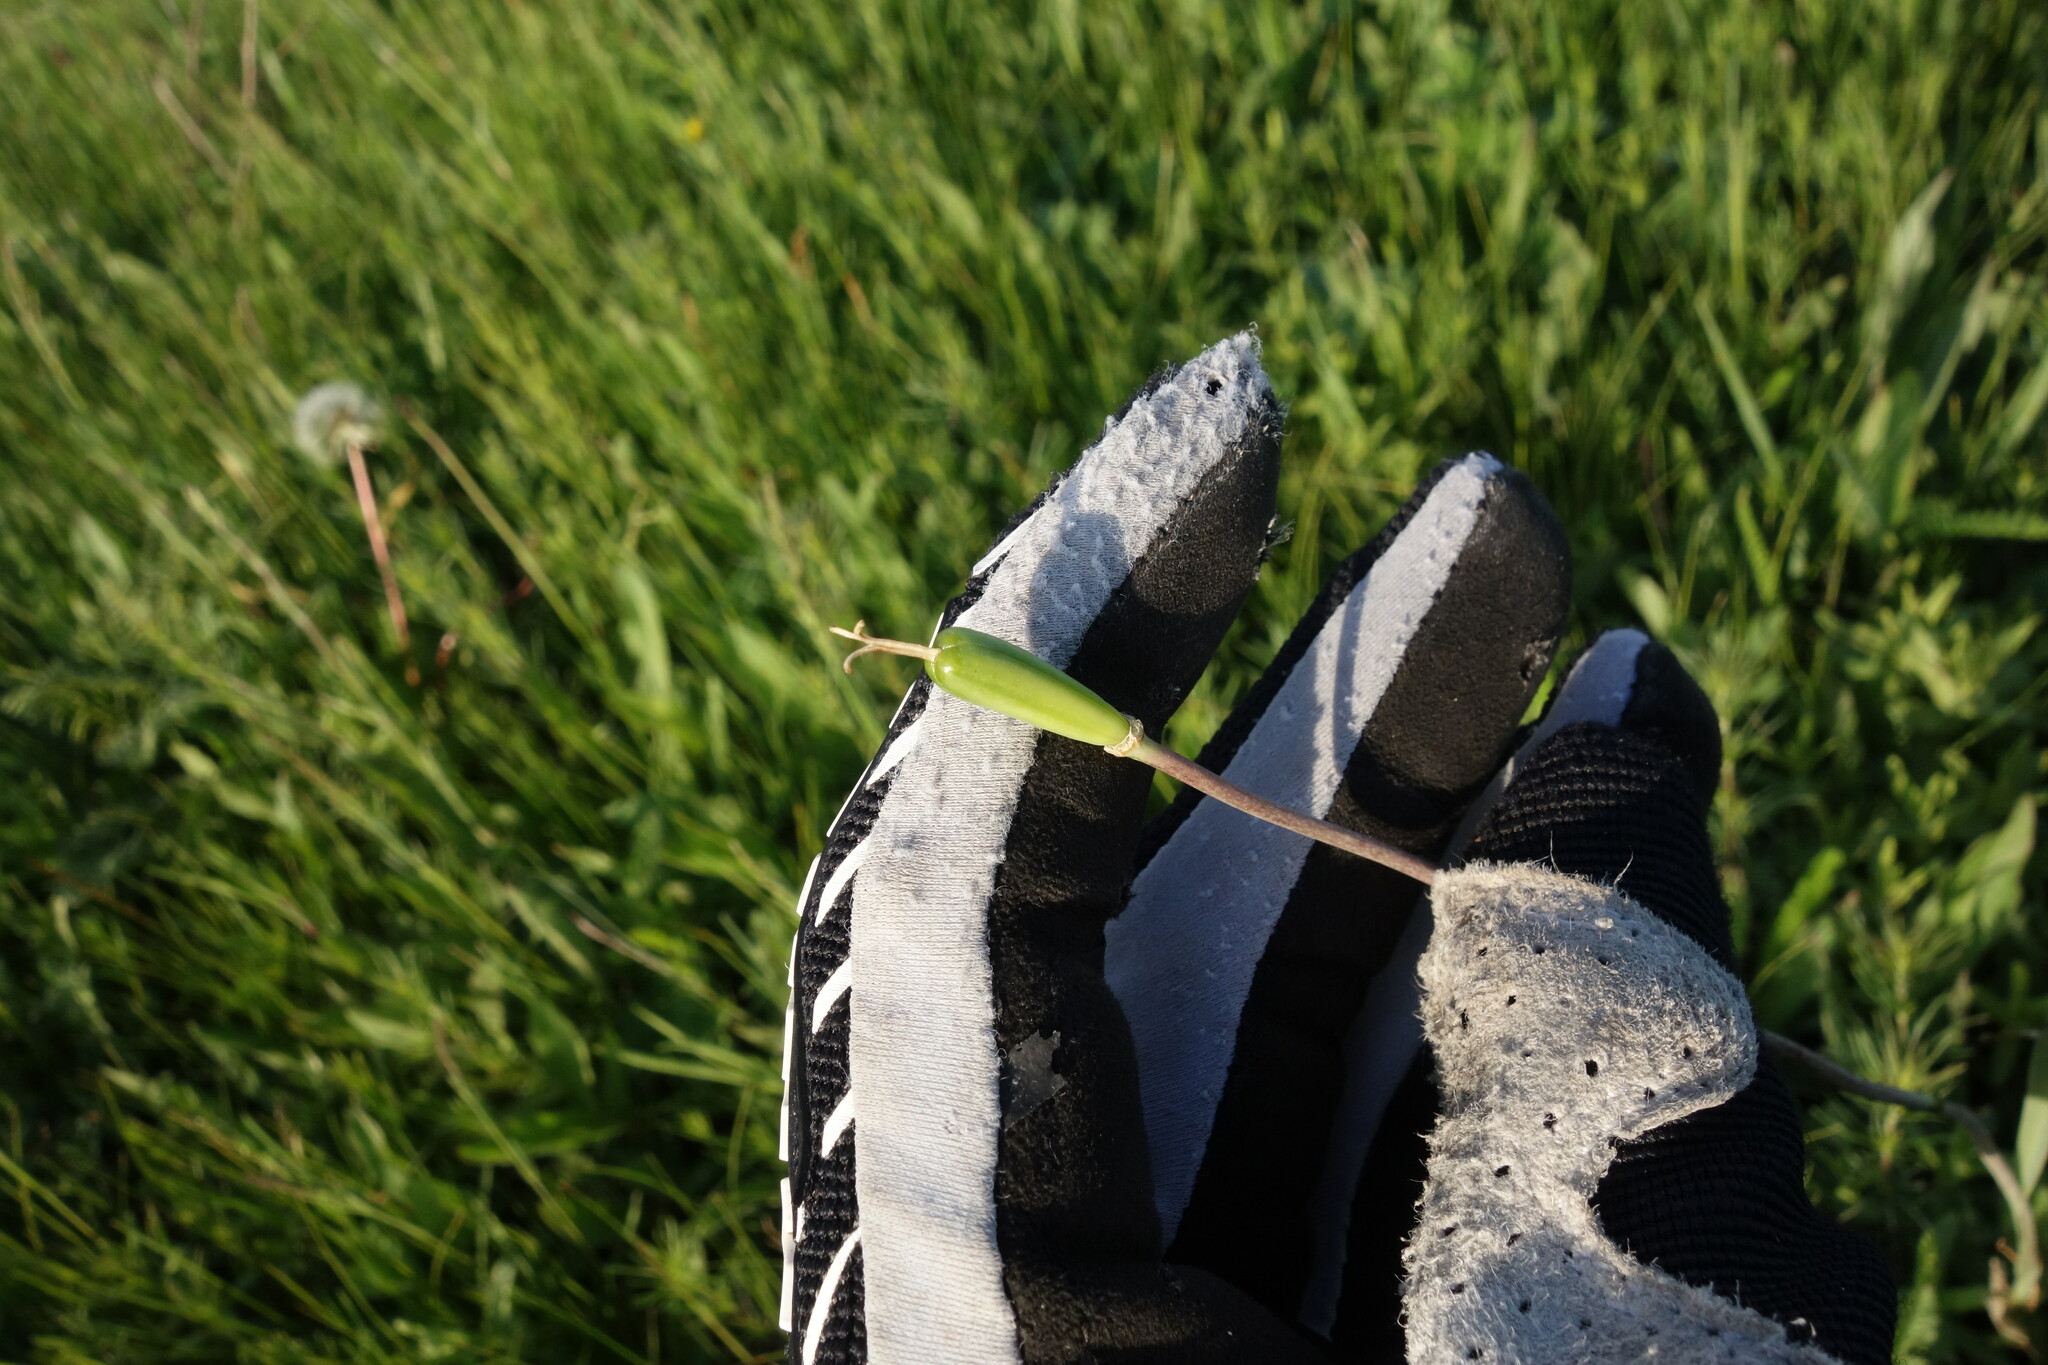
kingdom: Plantae
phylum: Tracheophyta
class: Liliopsida
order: Liliales
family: Liliaceae
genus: Fritillaria
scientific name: Fritillaria meleagroides
